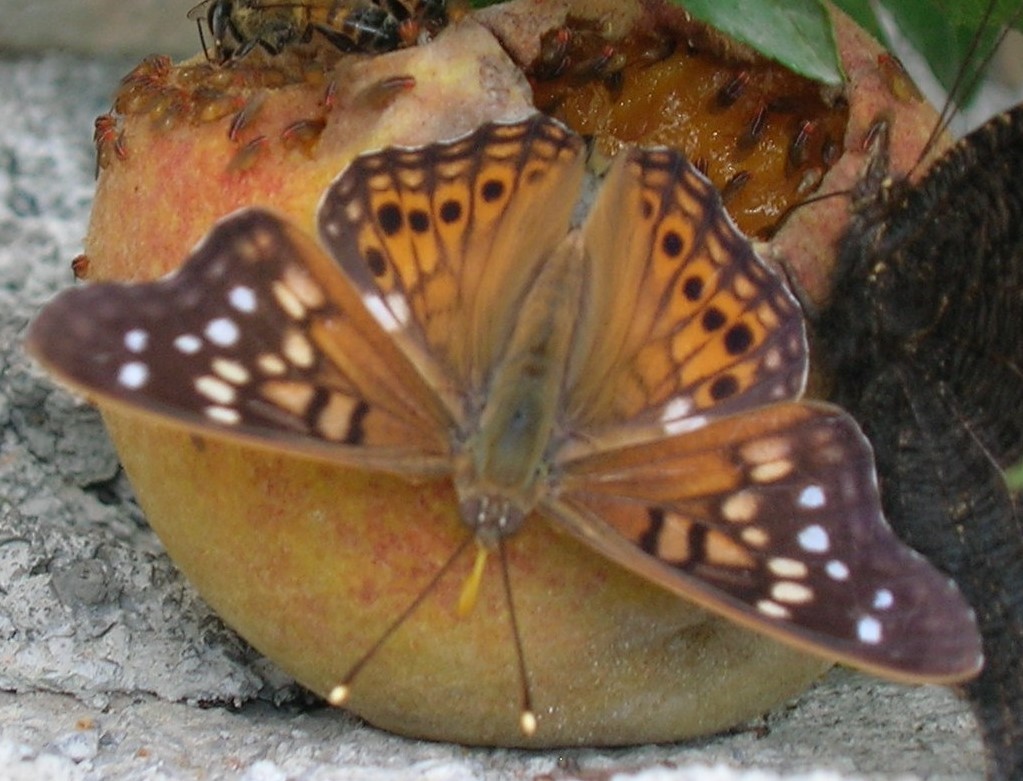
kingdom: Animalia
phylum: Arthropoda
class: Insecta
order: Lepidoptera
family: Nymphalidae
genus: Asterocampa
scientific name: Asterocampa clyton
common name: Tawny emperor
